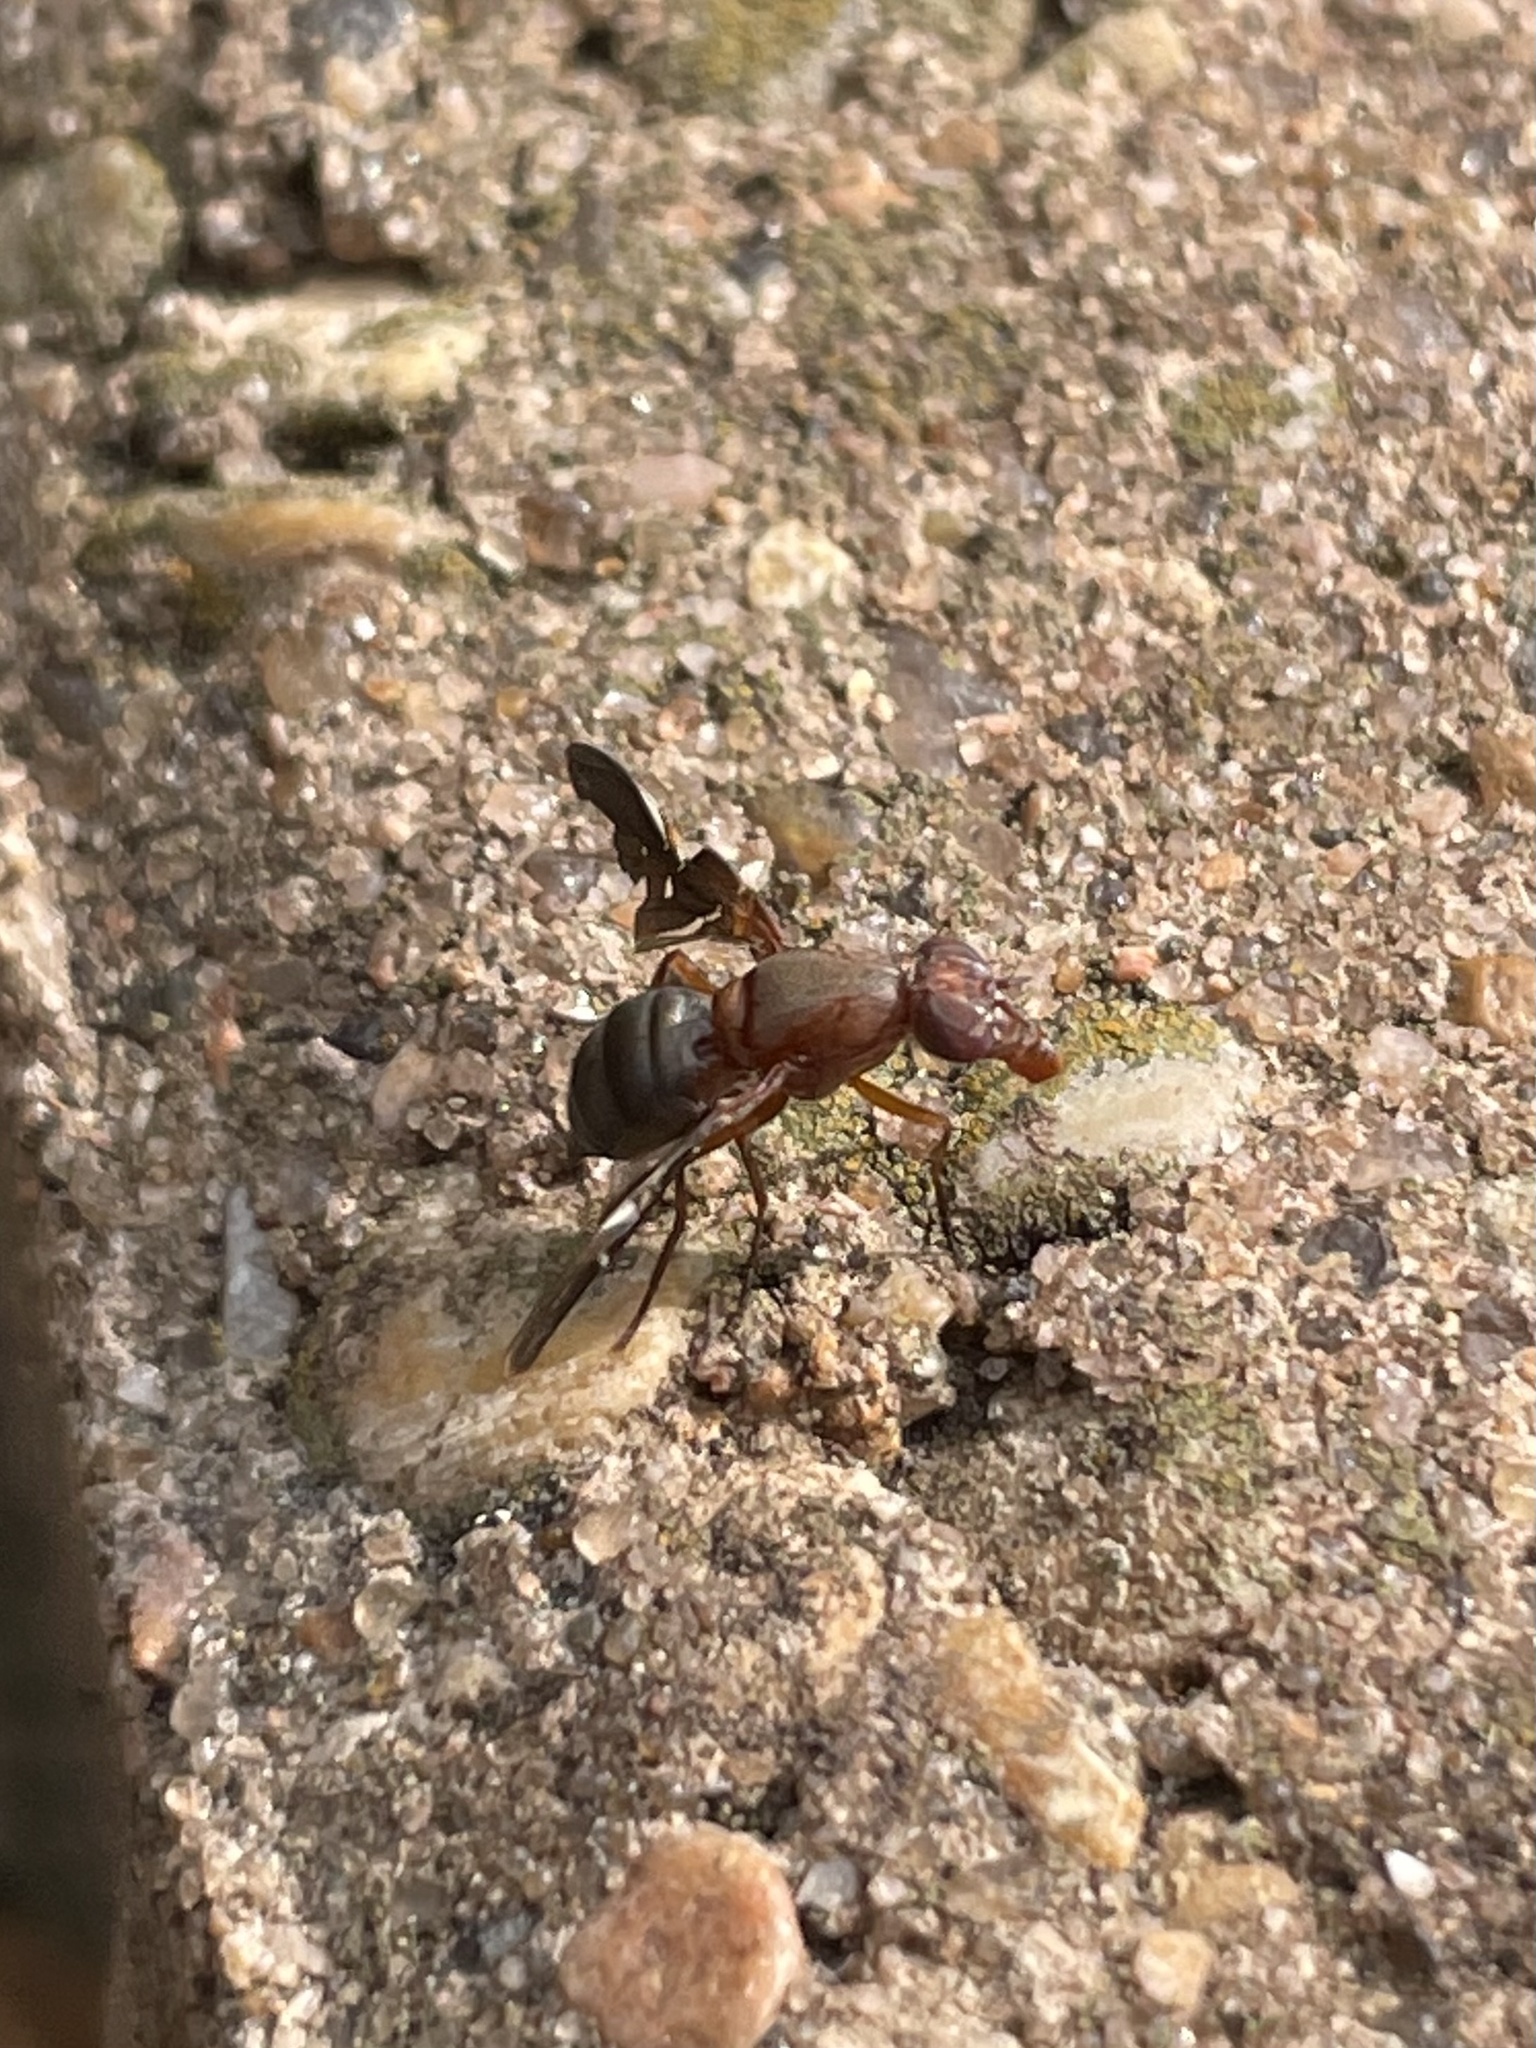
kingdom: Animalia
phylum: Arthropoda
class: Insecta
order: Diptera
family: Ulidiidae
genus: Delphinia
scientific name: Delphinia picta
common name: Common picture-winged fly
